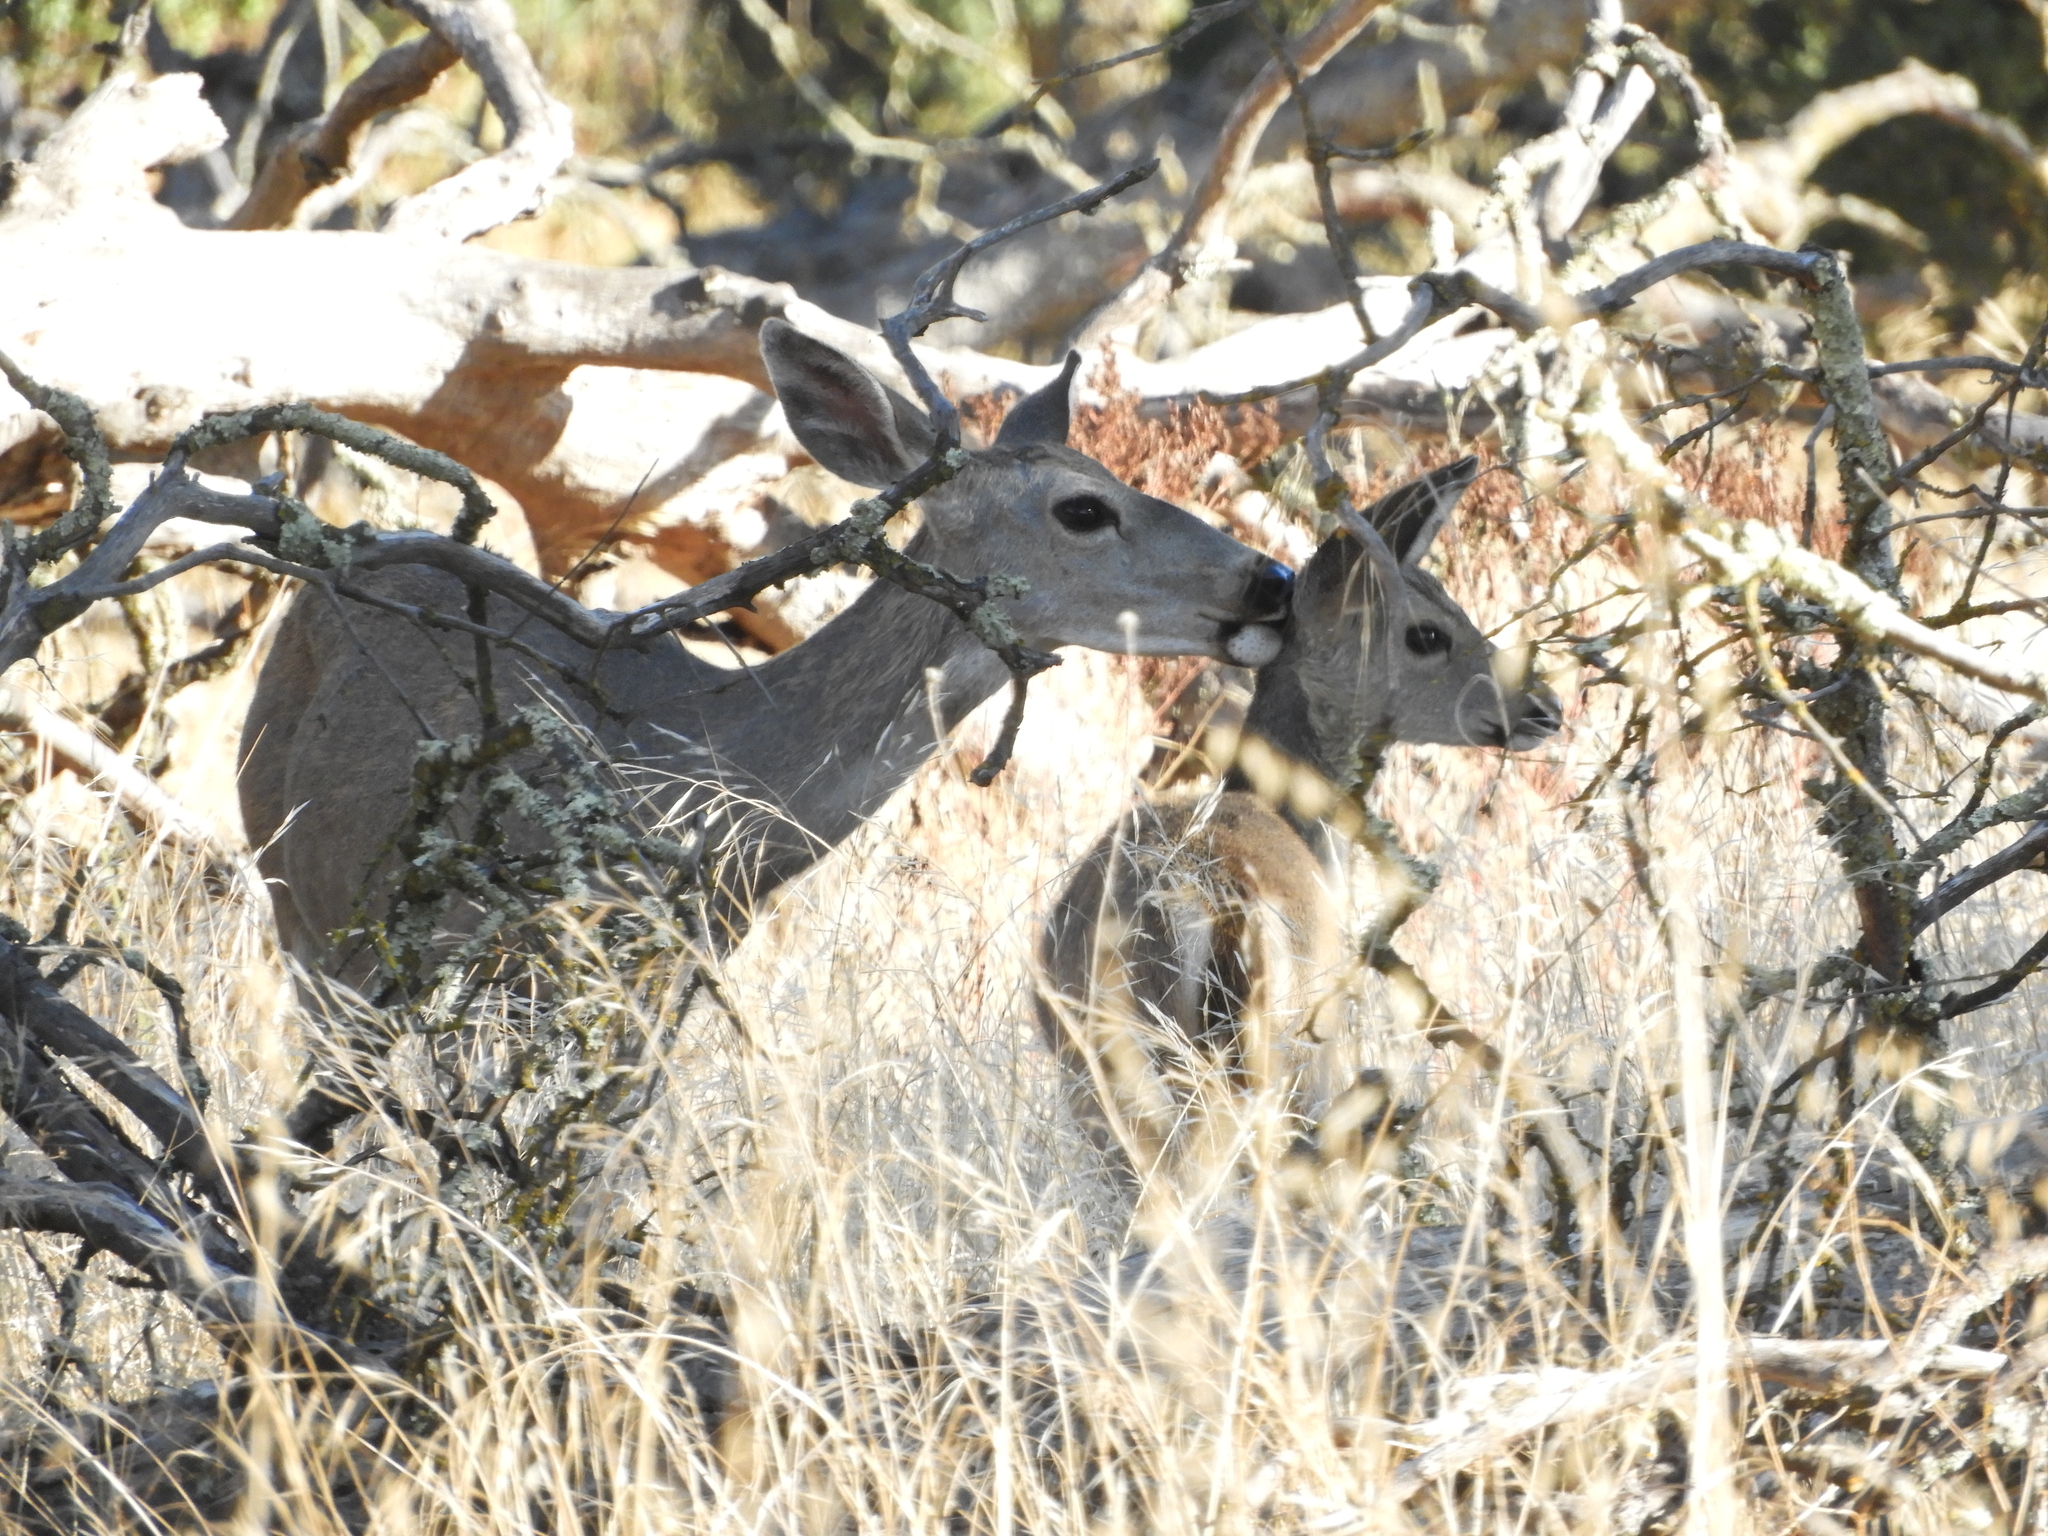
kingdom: Animalia
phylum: Chordata
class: Mammalia
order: Artiodactyla
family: Cervidae
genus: Odocoileus
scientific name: Odocoileus hemionus
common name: Mule deer
